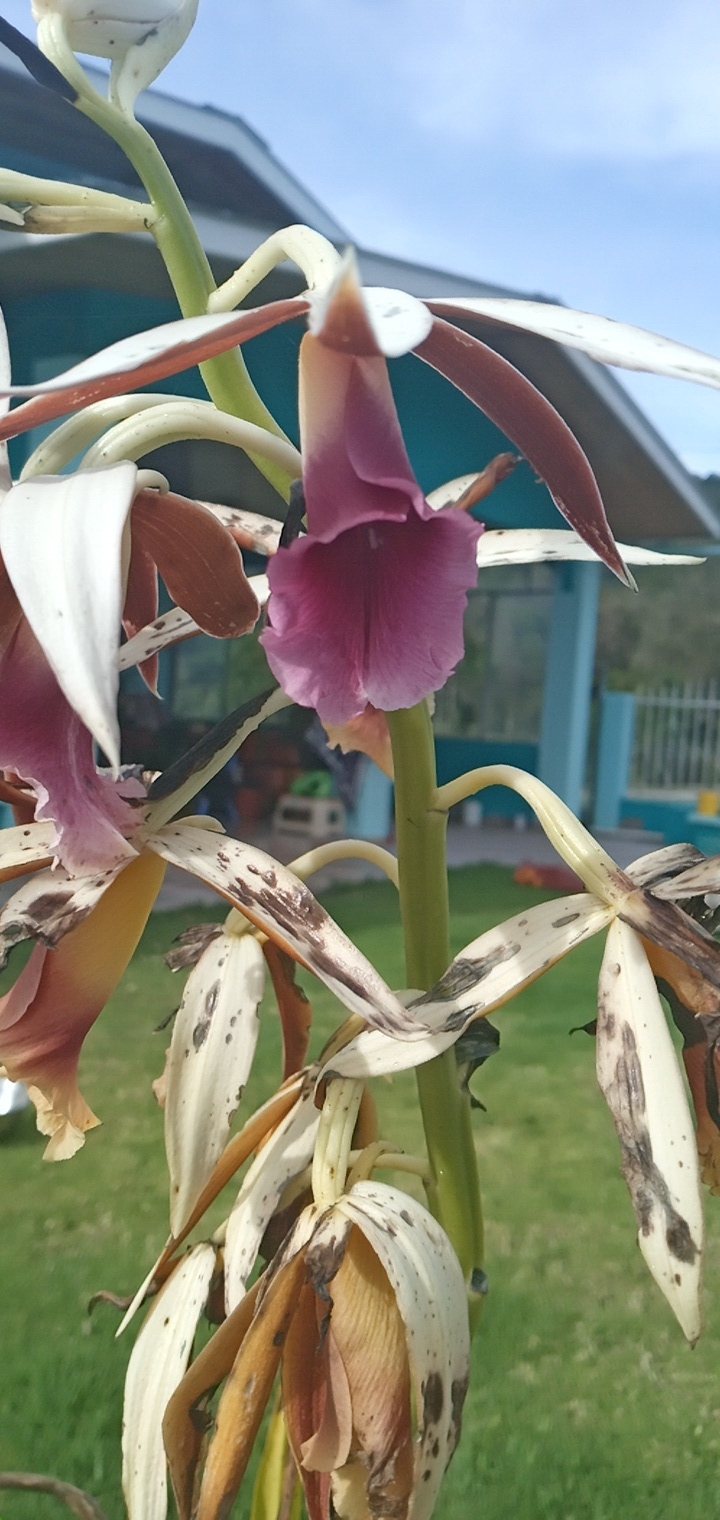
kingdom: Plantae
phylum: Tracheophyta
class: Liliopsida
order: Asparagales
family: Orchidaceae
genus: Calanthe
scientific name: Calanthe tankervilleae
